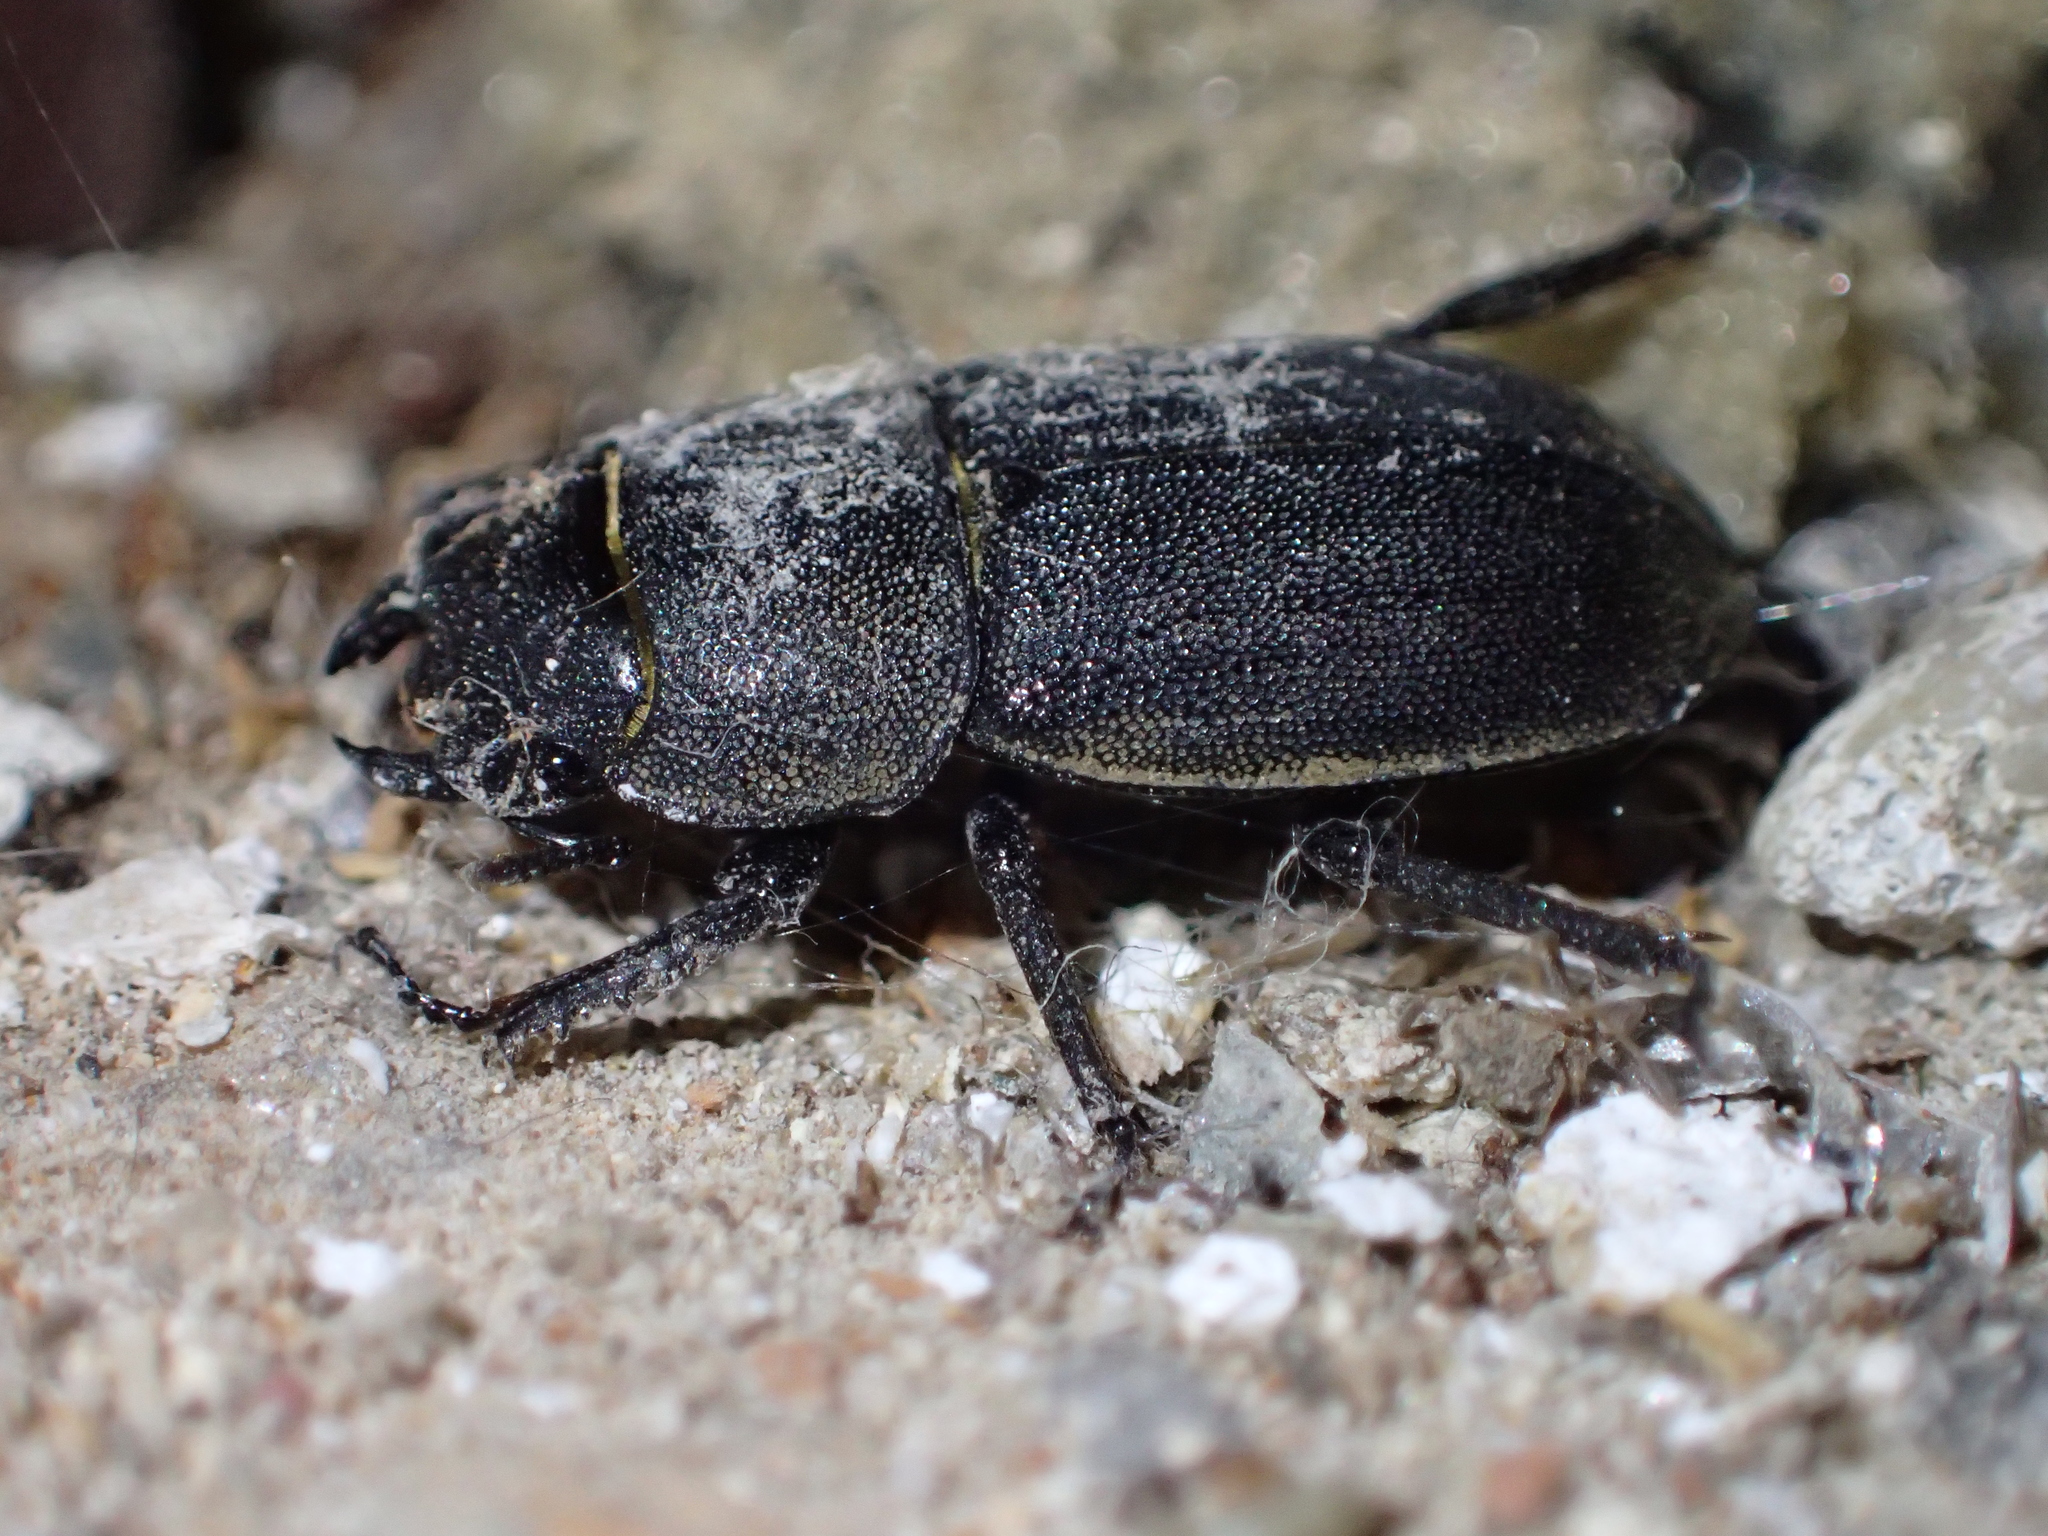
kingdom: Animalia
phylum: Arthropoda
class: Insecta
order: Coleoptera
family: Lucanidae
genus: Dorcus
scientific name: Dorcus parallelipipedus
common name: Lesser stag beetle
